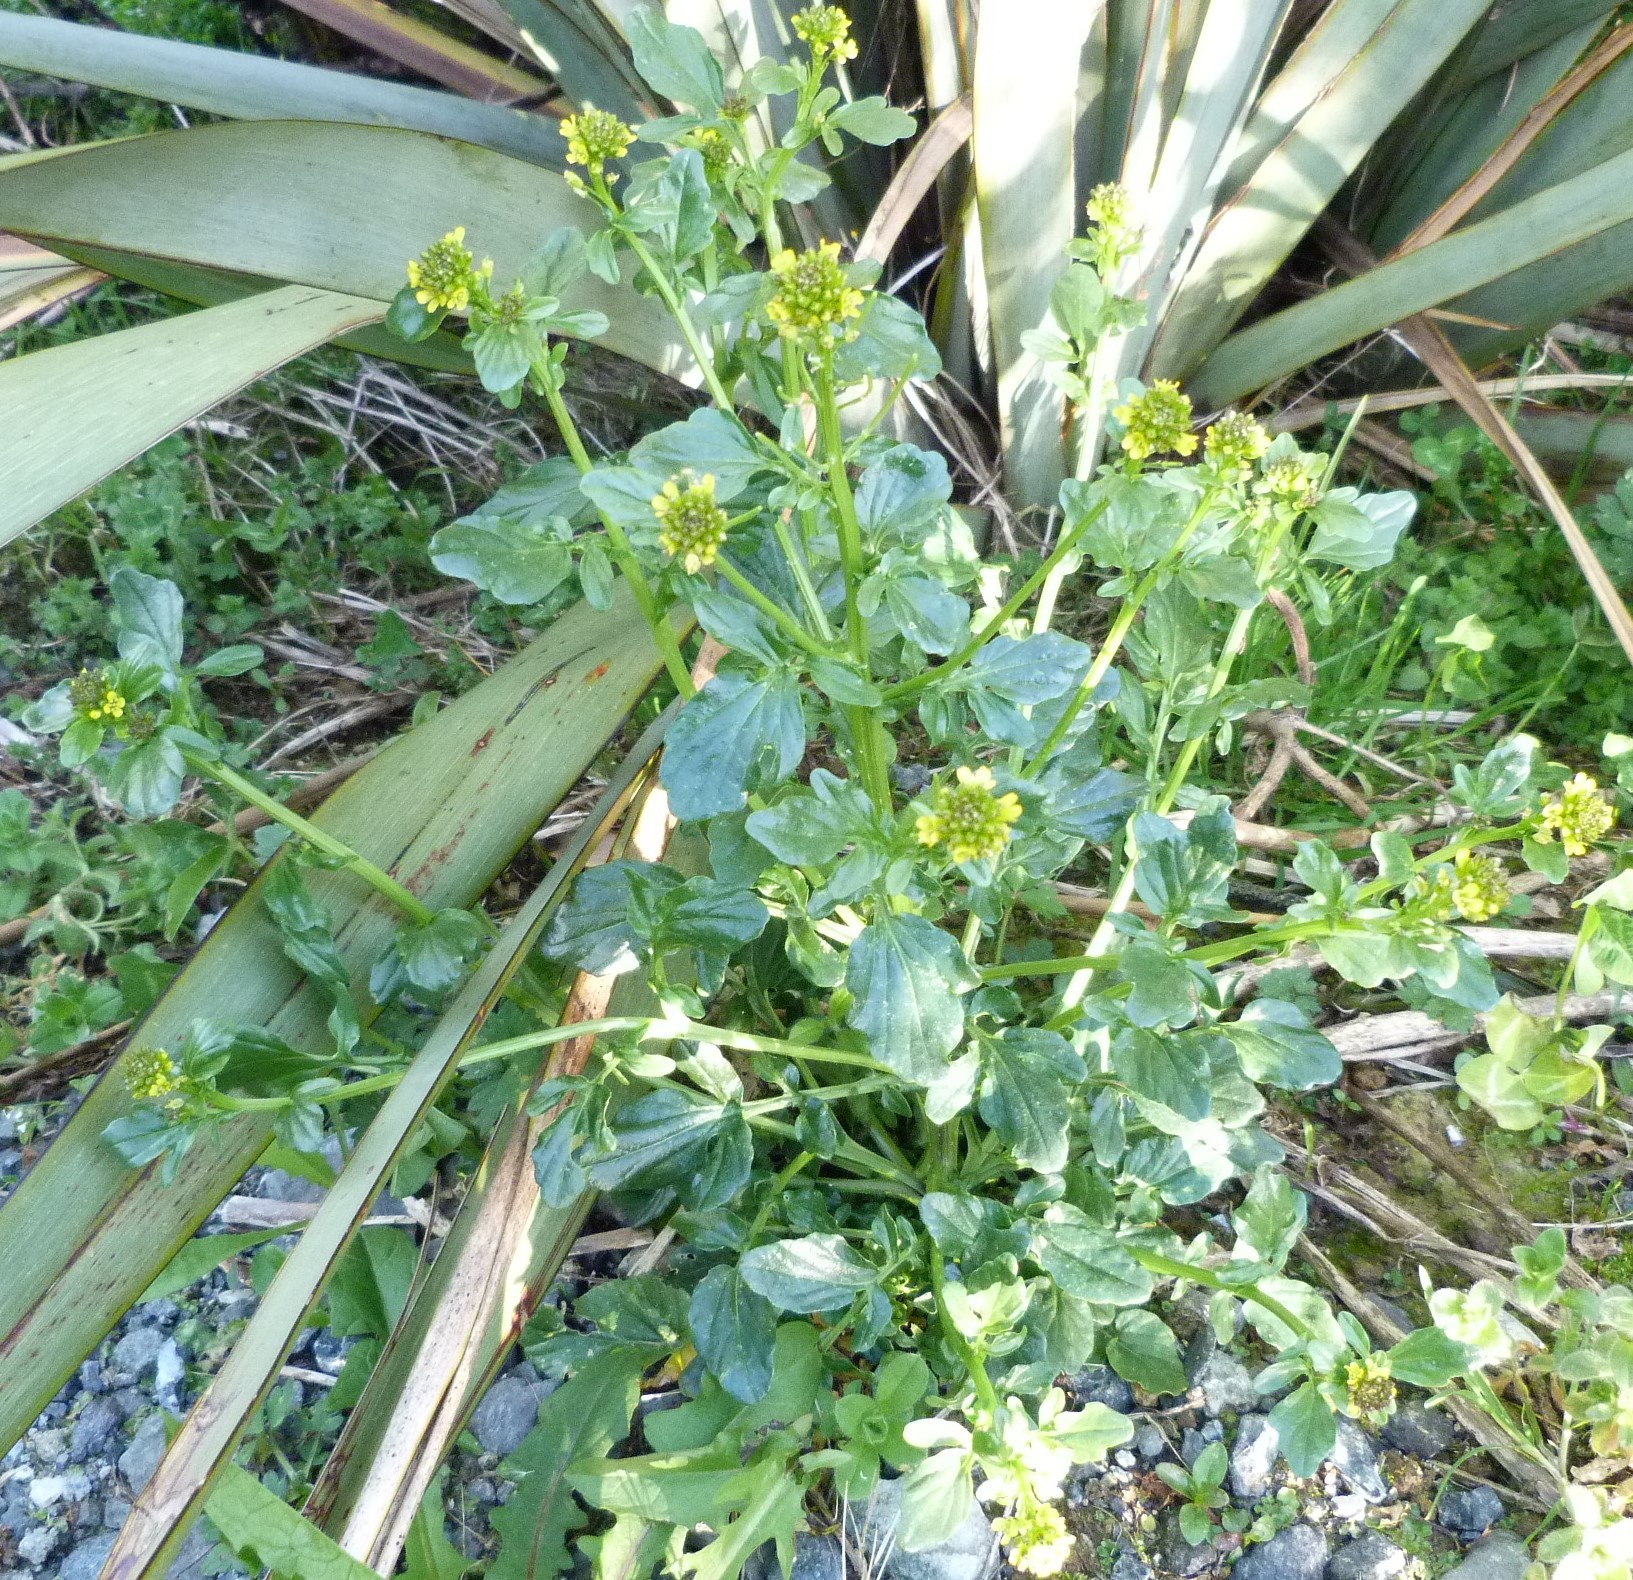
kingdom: Plantae
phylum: Tracheophyta
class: Magnoliopsida
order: Brassicales
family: Brassicaceae
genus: Barbarea
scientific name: Barbarea intermedia
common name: Medium-flowered winter-cress
